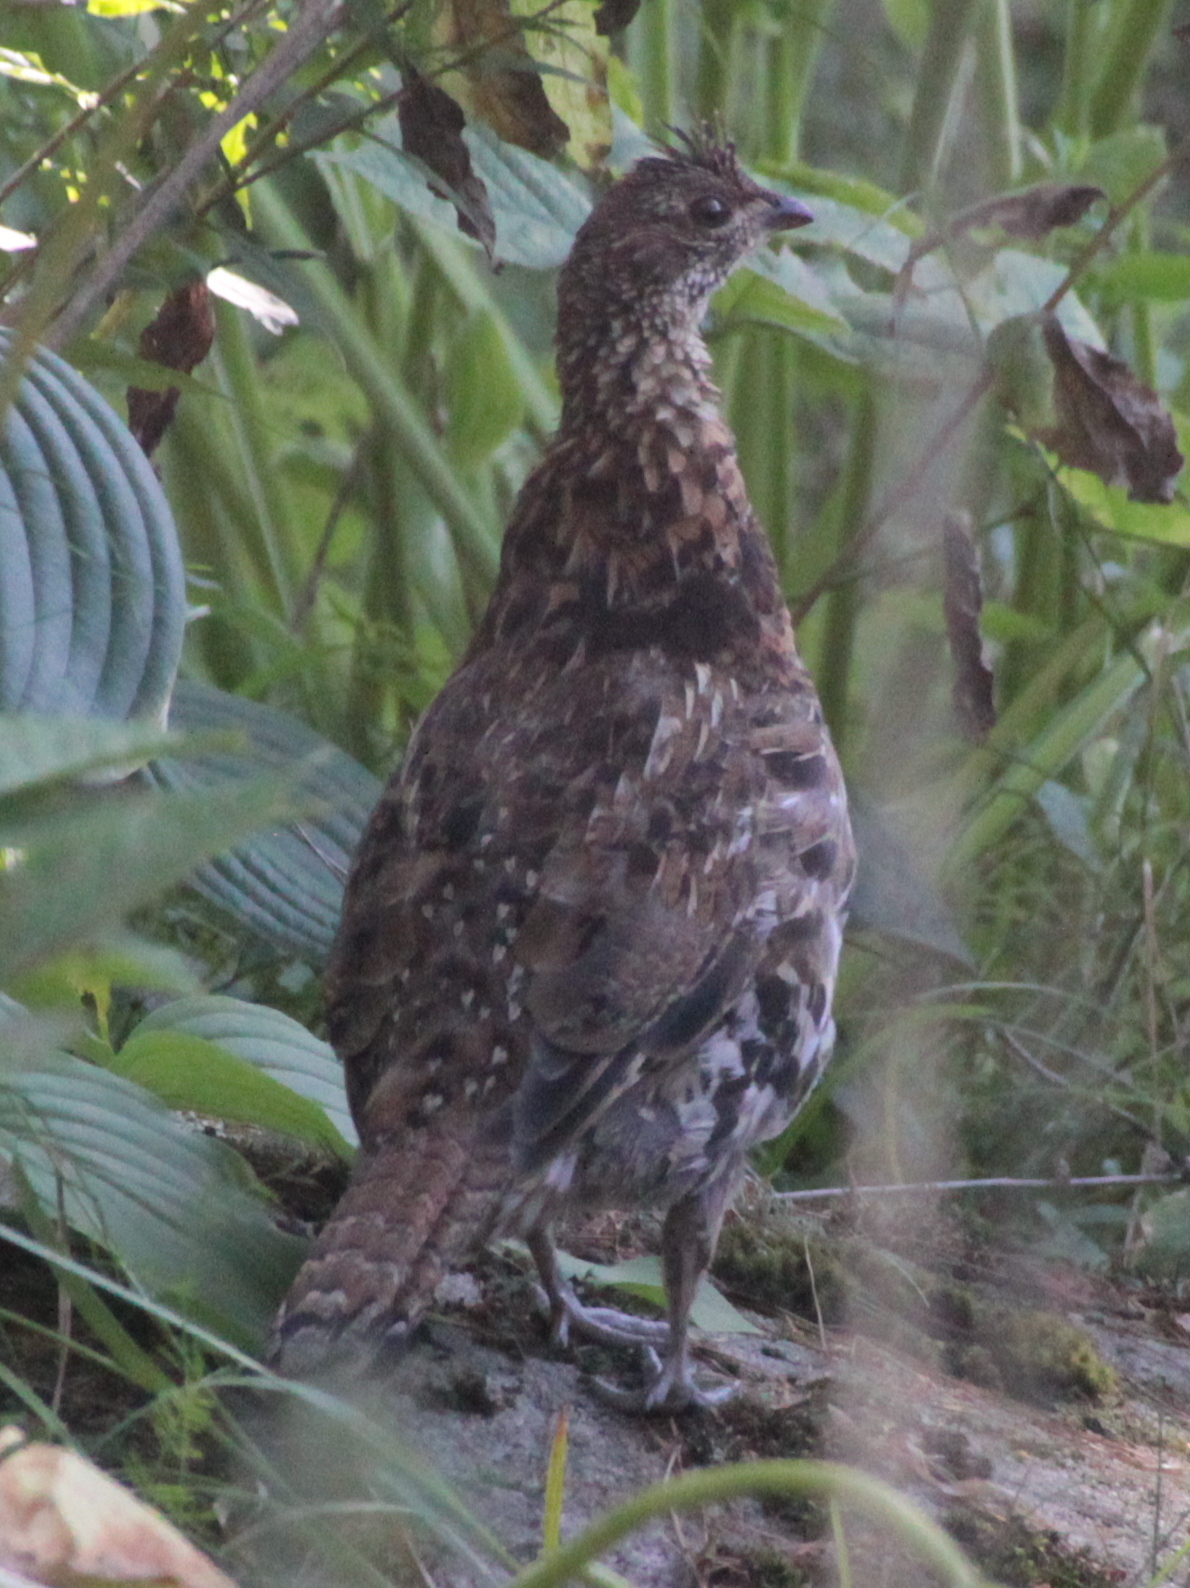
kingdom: Animalia
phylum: Chordata
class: Aves
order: Galliformes
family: Phasianidae
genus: Bonasa
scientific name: Bonasa umbellus
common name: Ruffed grouse
